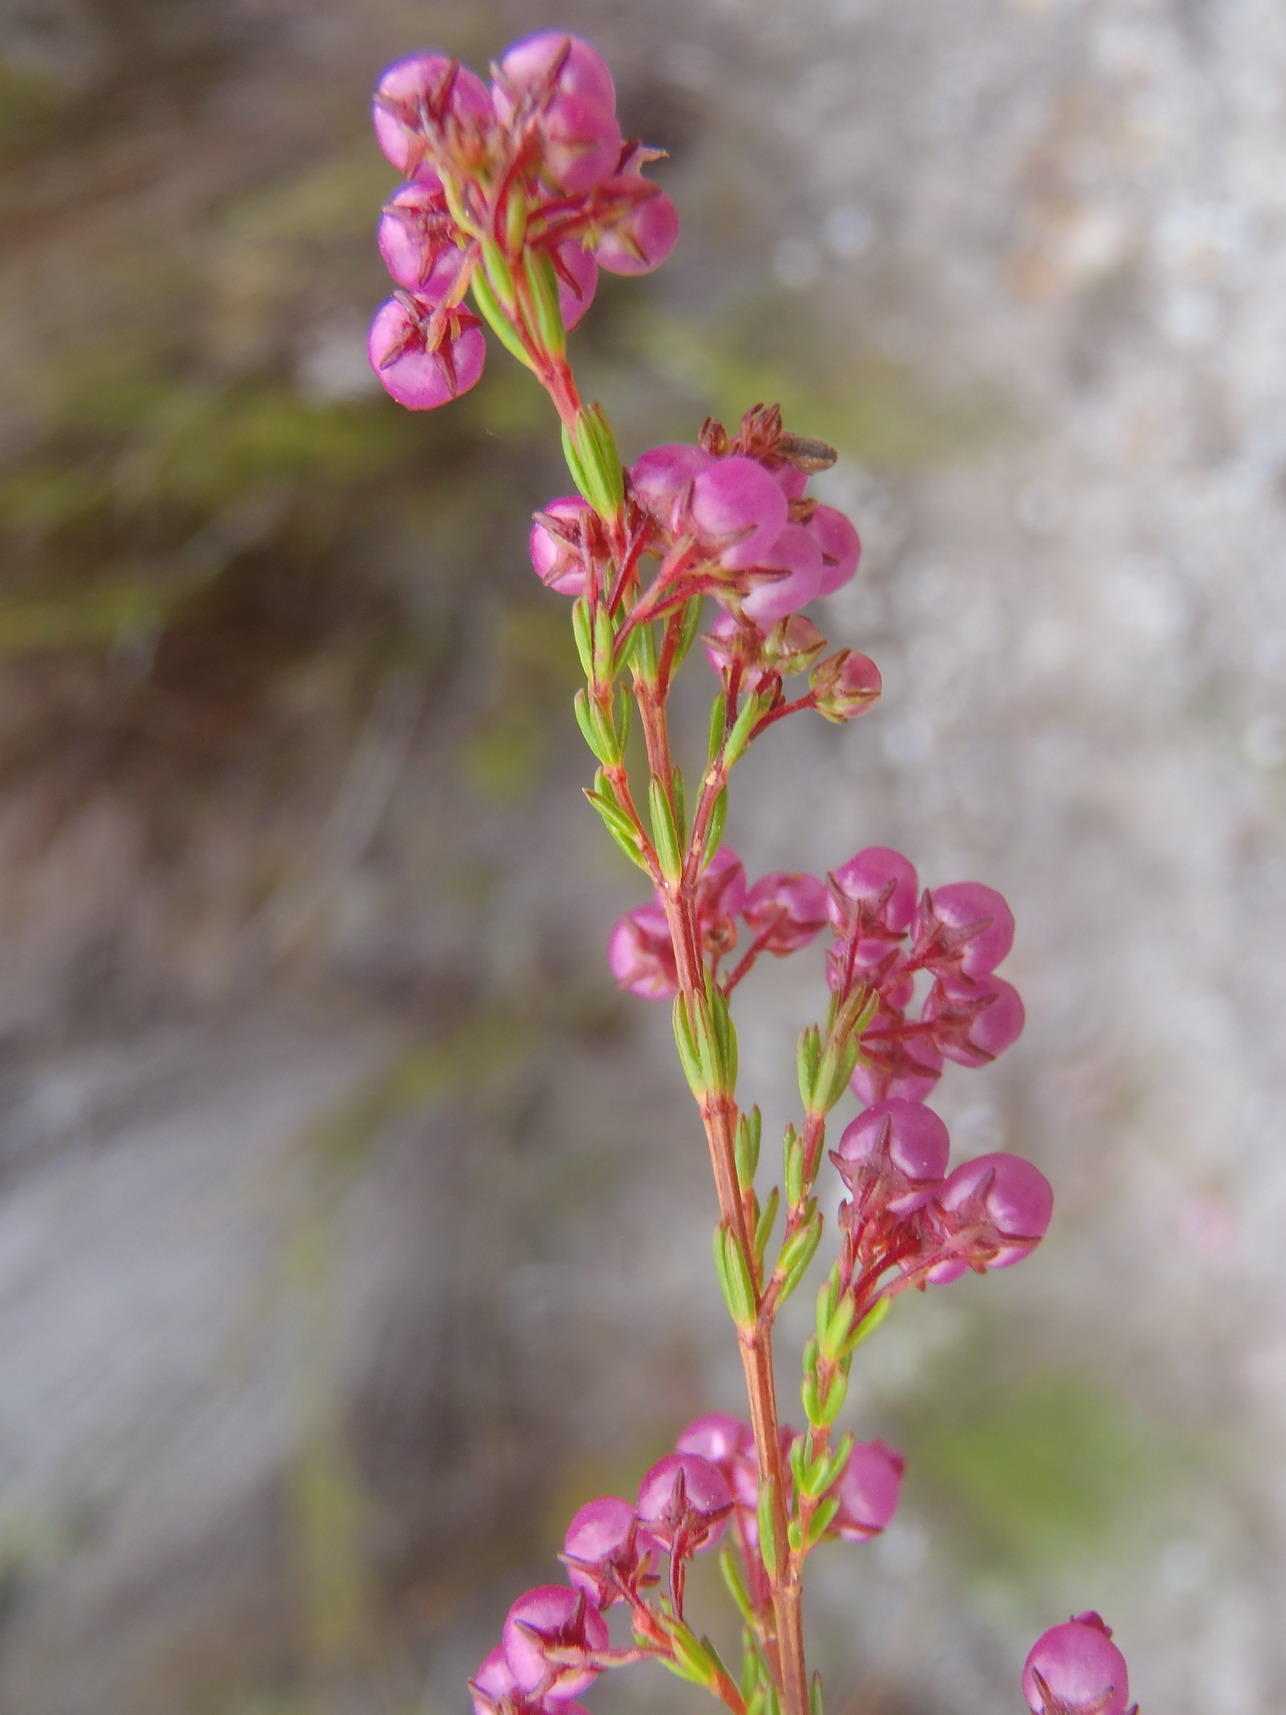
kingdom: Plantae
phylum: Tracheophyta
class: Magnoliopsida
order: Ericales
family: Ericaceae
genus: Erica
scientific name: Erica multumbellifera
